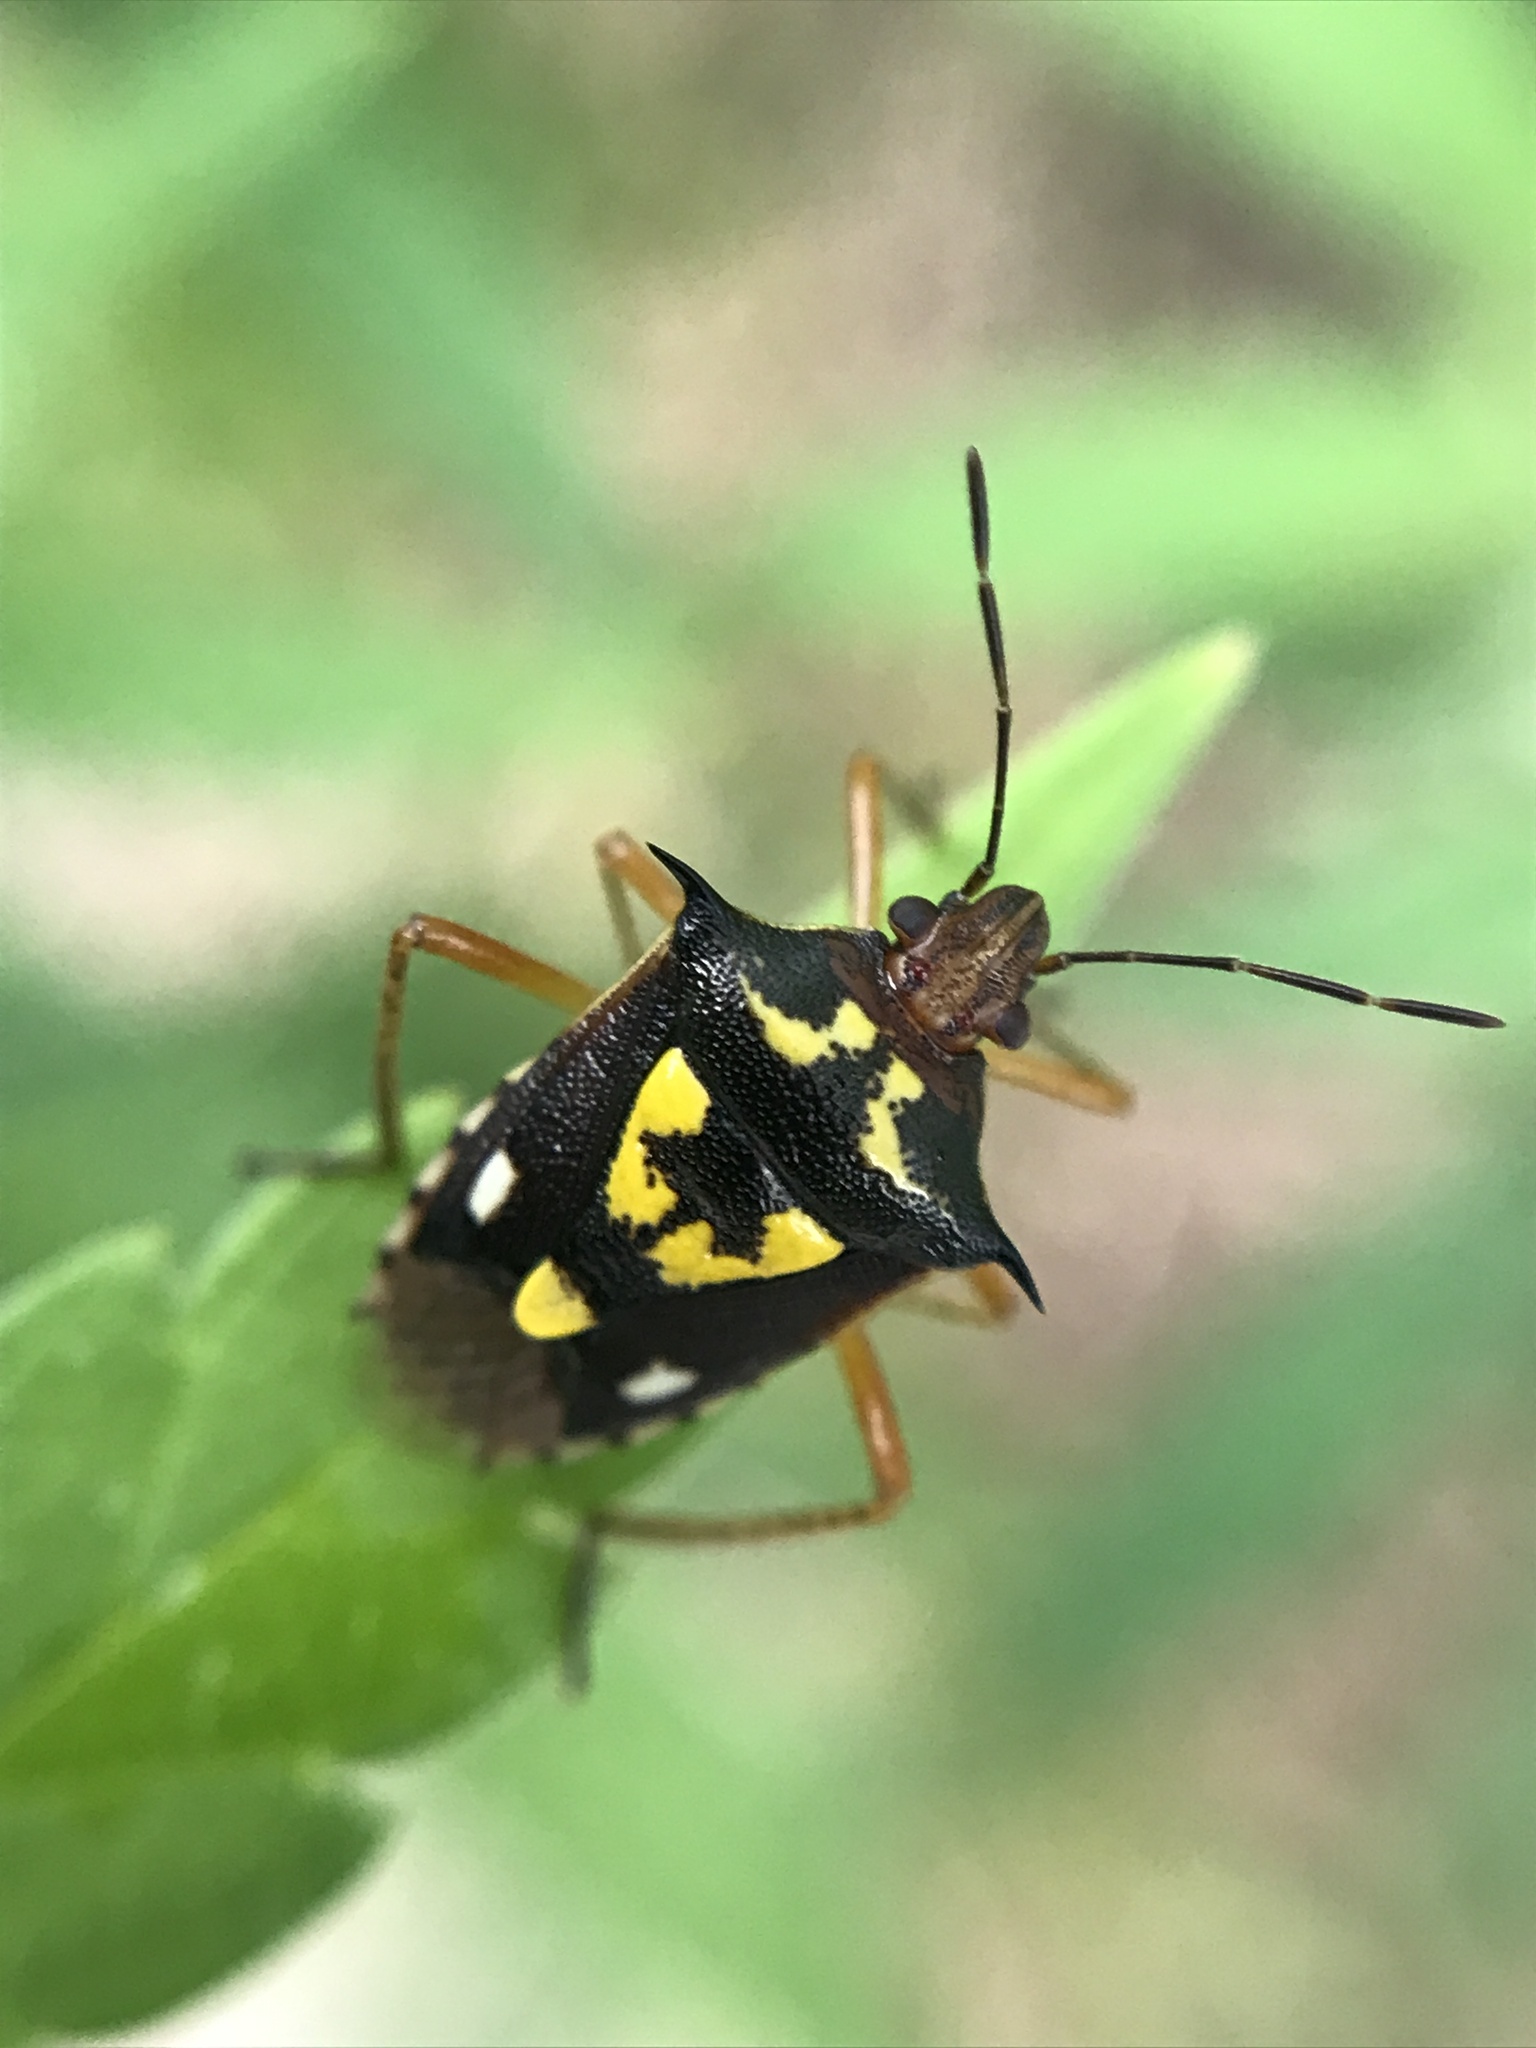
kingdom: Animalia
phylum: Arthropoda
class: Insecta
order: Hemiptera
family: Pentatomidae
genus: Oebalus
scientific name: Oebalus poecilus
